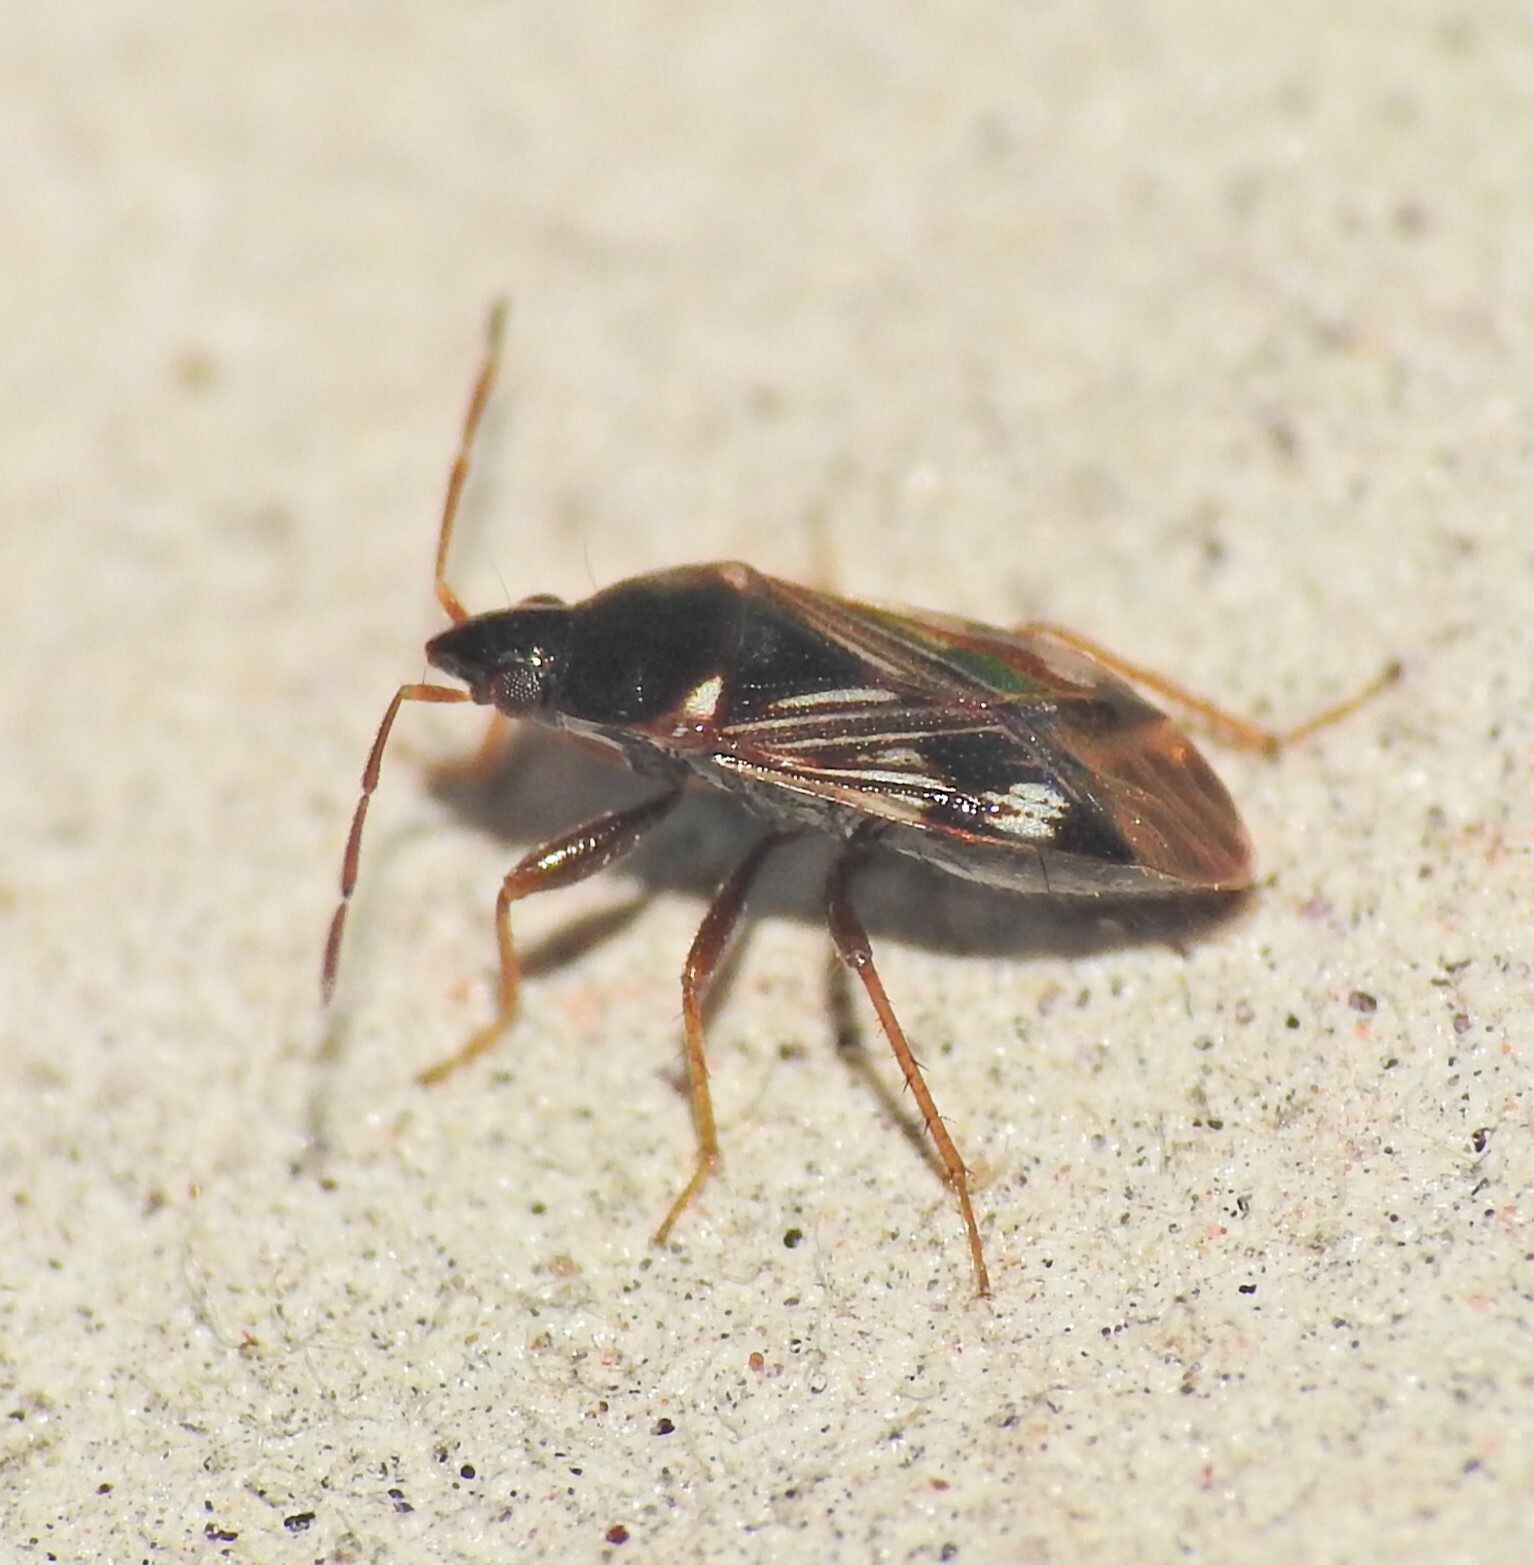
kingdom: Animalia
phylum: Arthropoda
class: Insecta
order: Hemiptera
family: Rhyparochromidae
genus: Paramyocara
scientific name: Paramyocara iridescens
